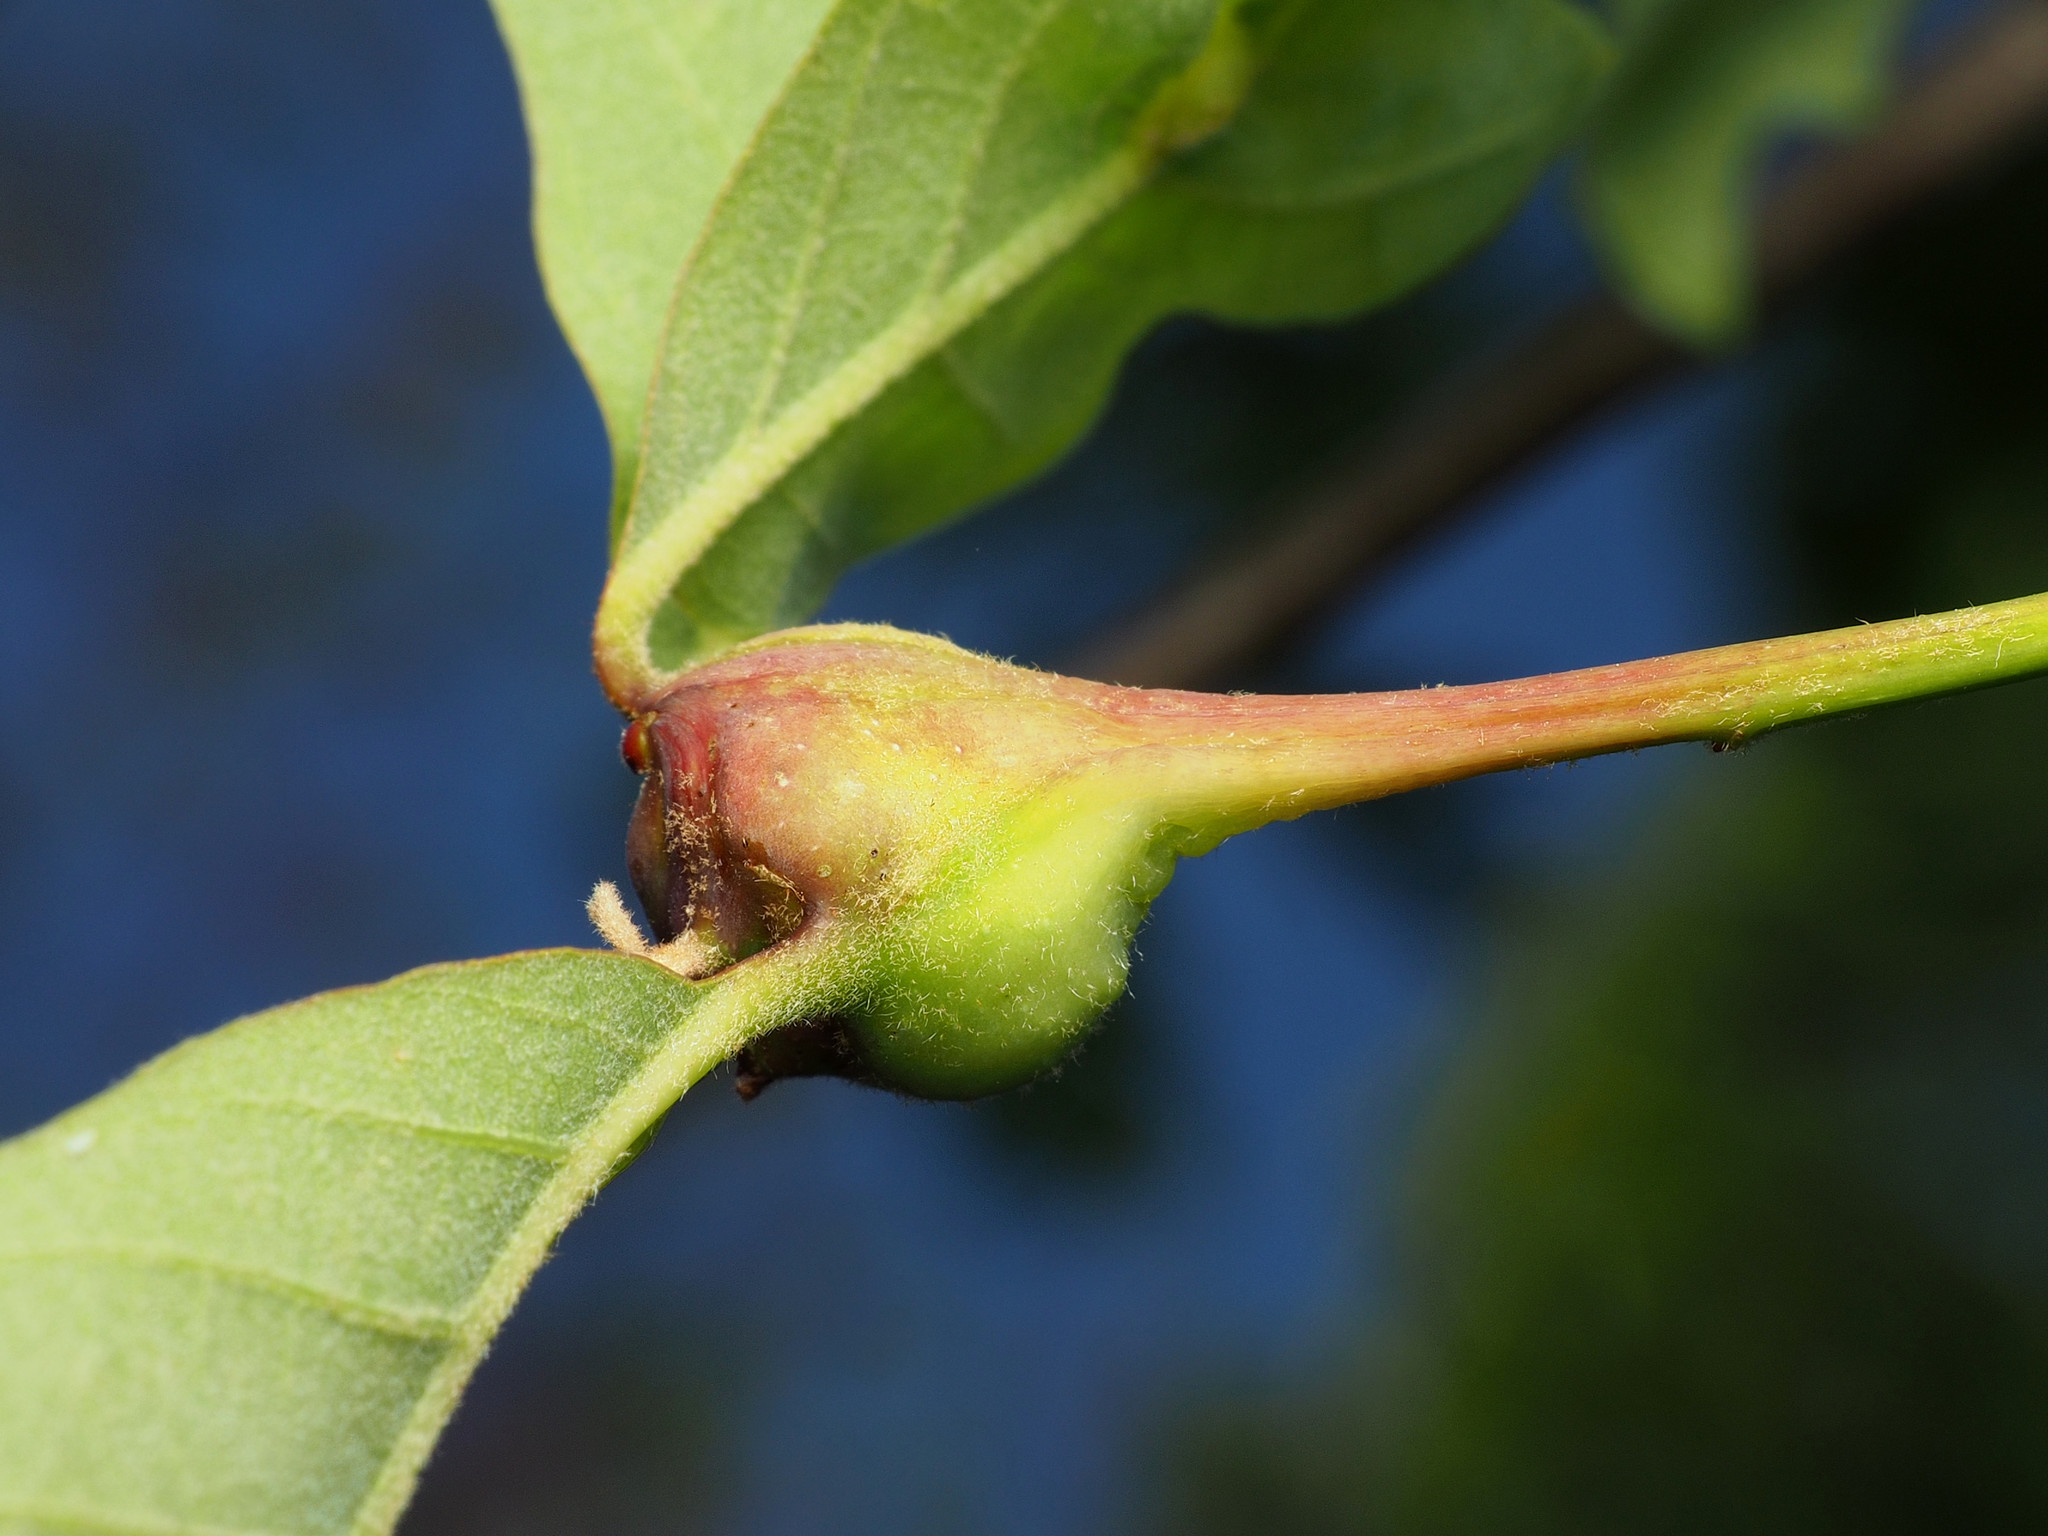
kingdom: Animalia
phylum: Arthropoda
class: Insecta
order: Hymenoptera
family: Cynipidae
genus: Callirhytis
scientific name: Callirhytis clavula
